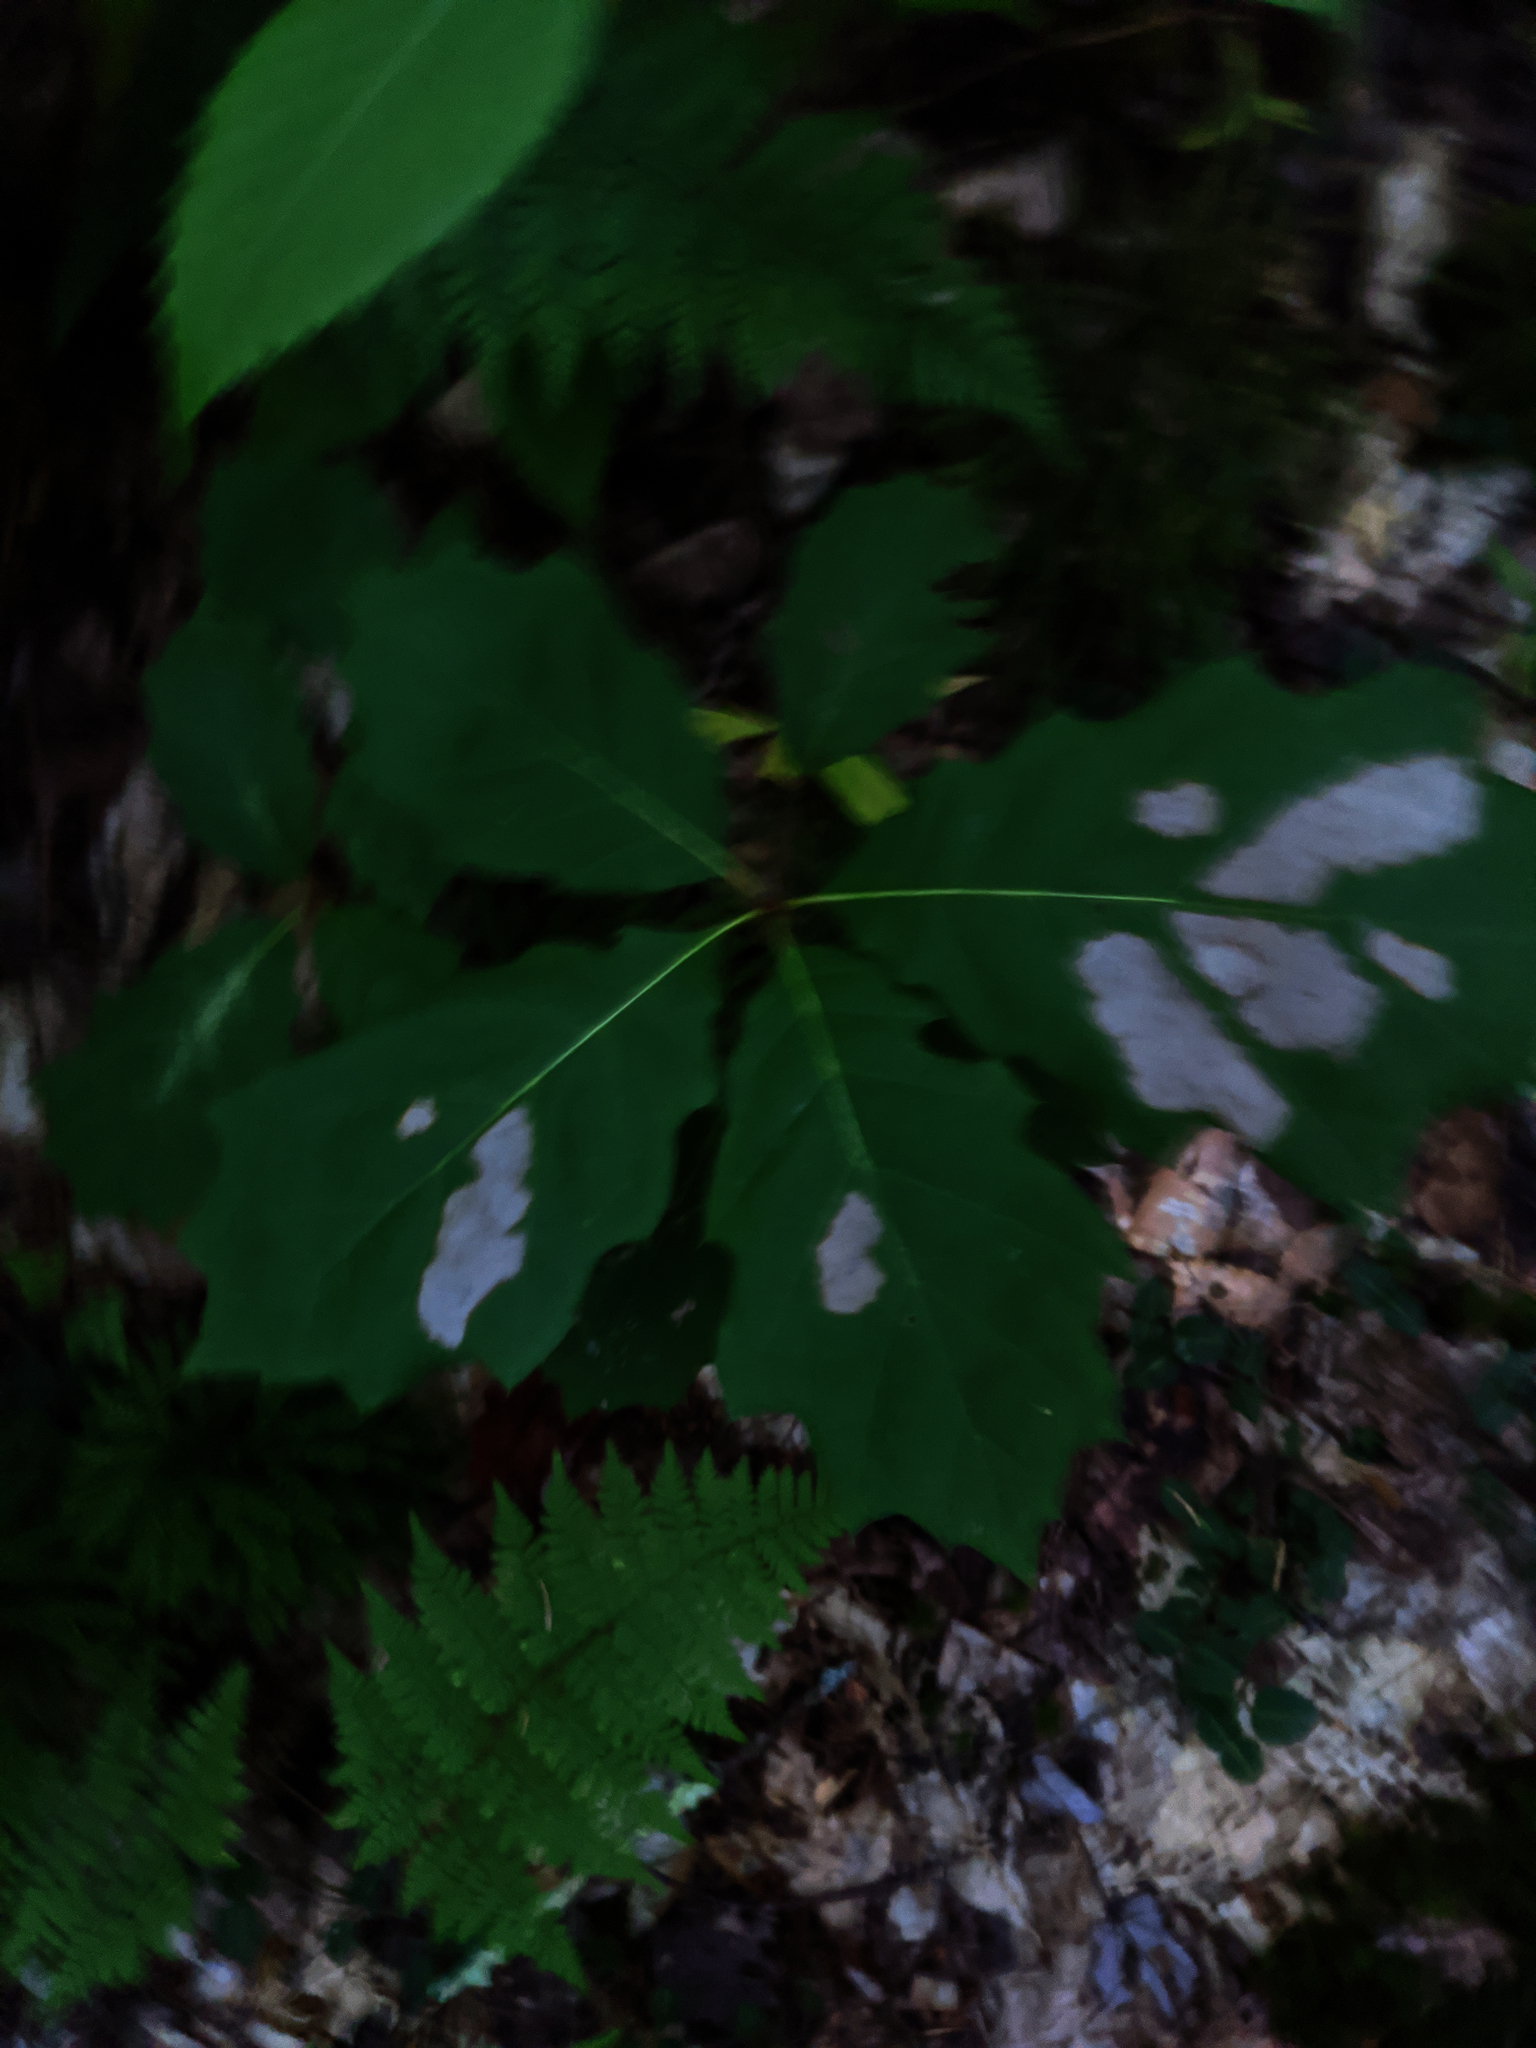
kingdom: Plantae
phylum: Tracheophyta
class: Magnoliopsida
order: Fagales
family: Fagaceae
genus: Quercus
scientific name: Quercus rubra
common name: Red oak
